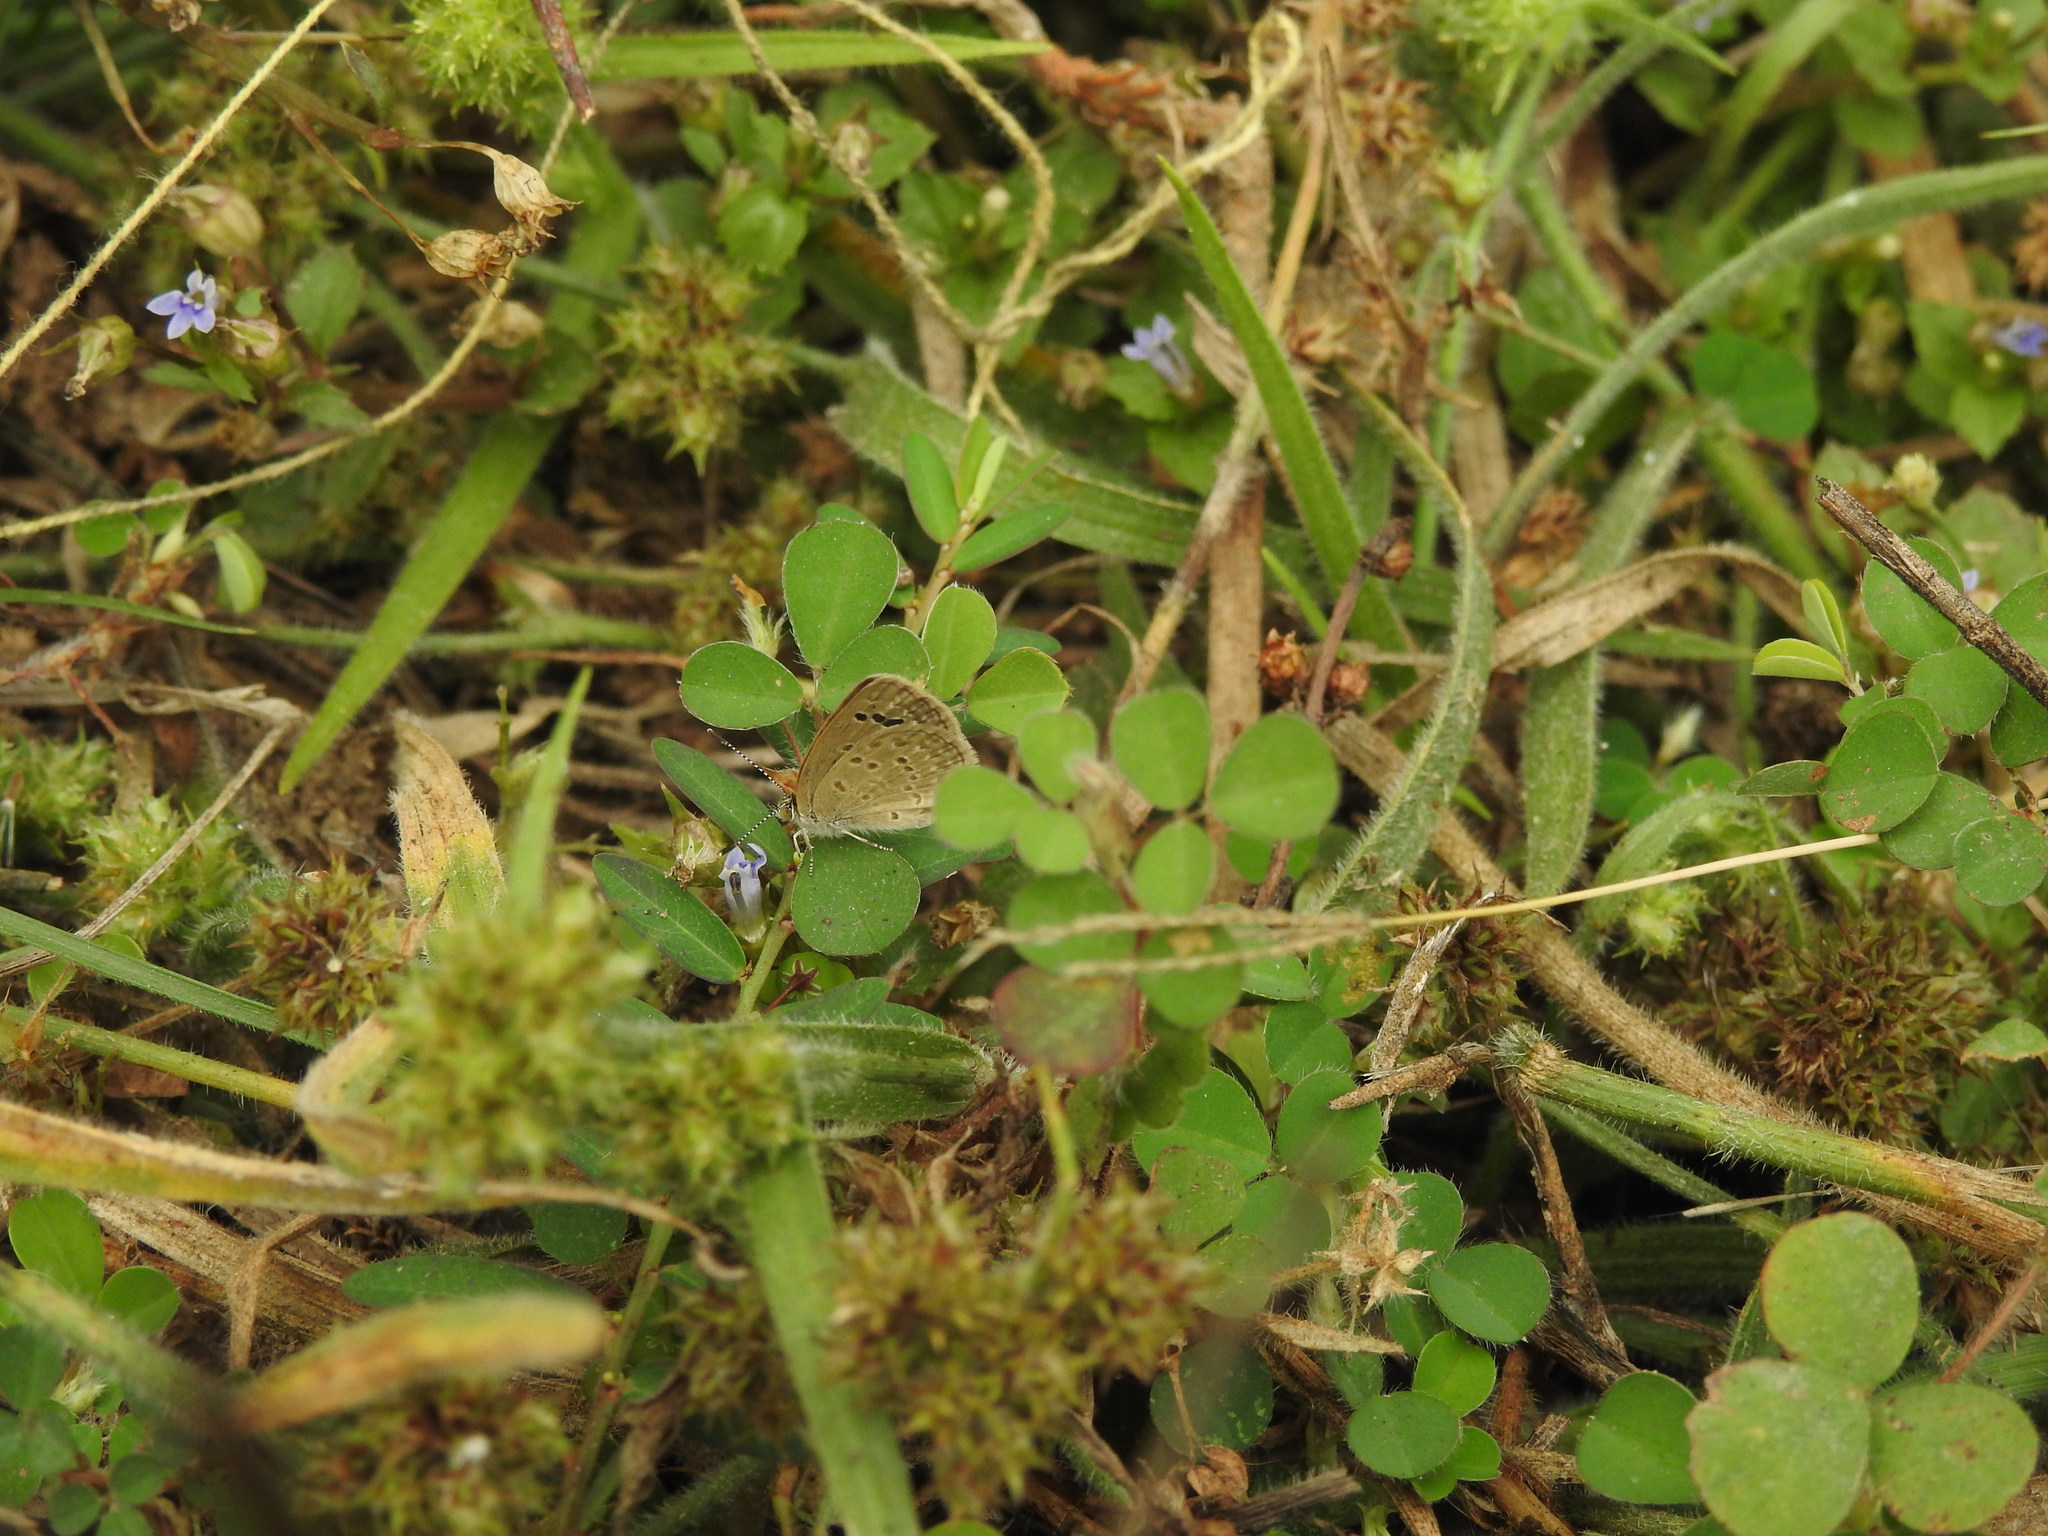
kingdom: Animalia
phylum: Arthropoda
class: Insecta
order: Lepidoptera
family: Lycaenidae
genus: Zizina
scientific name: Zizina otis
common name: Lesser grass blue
